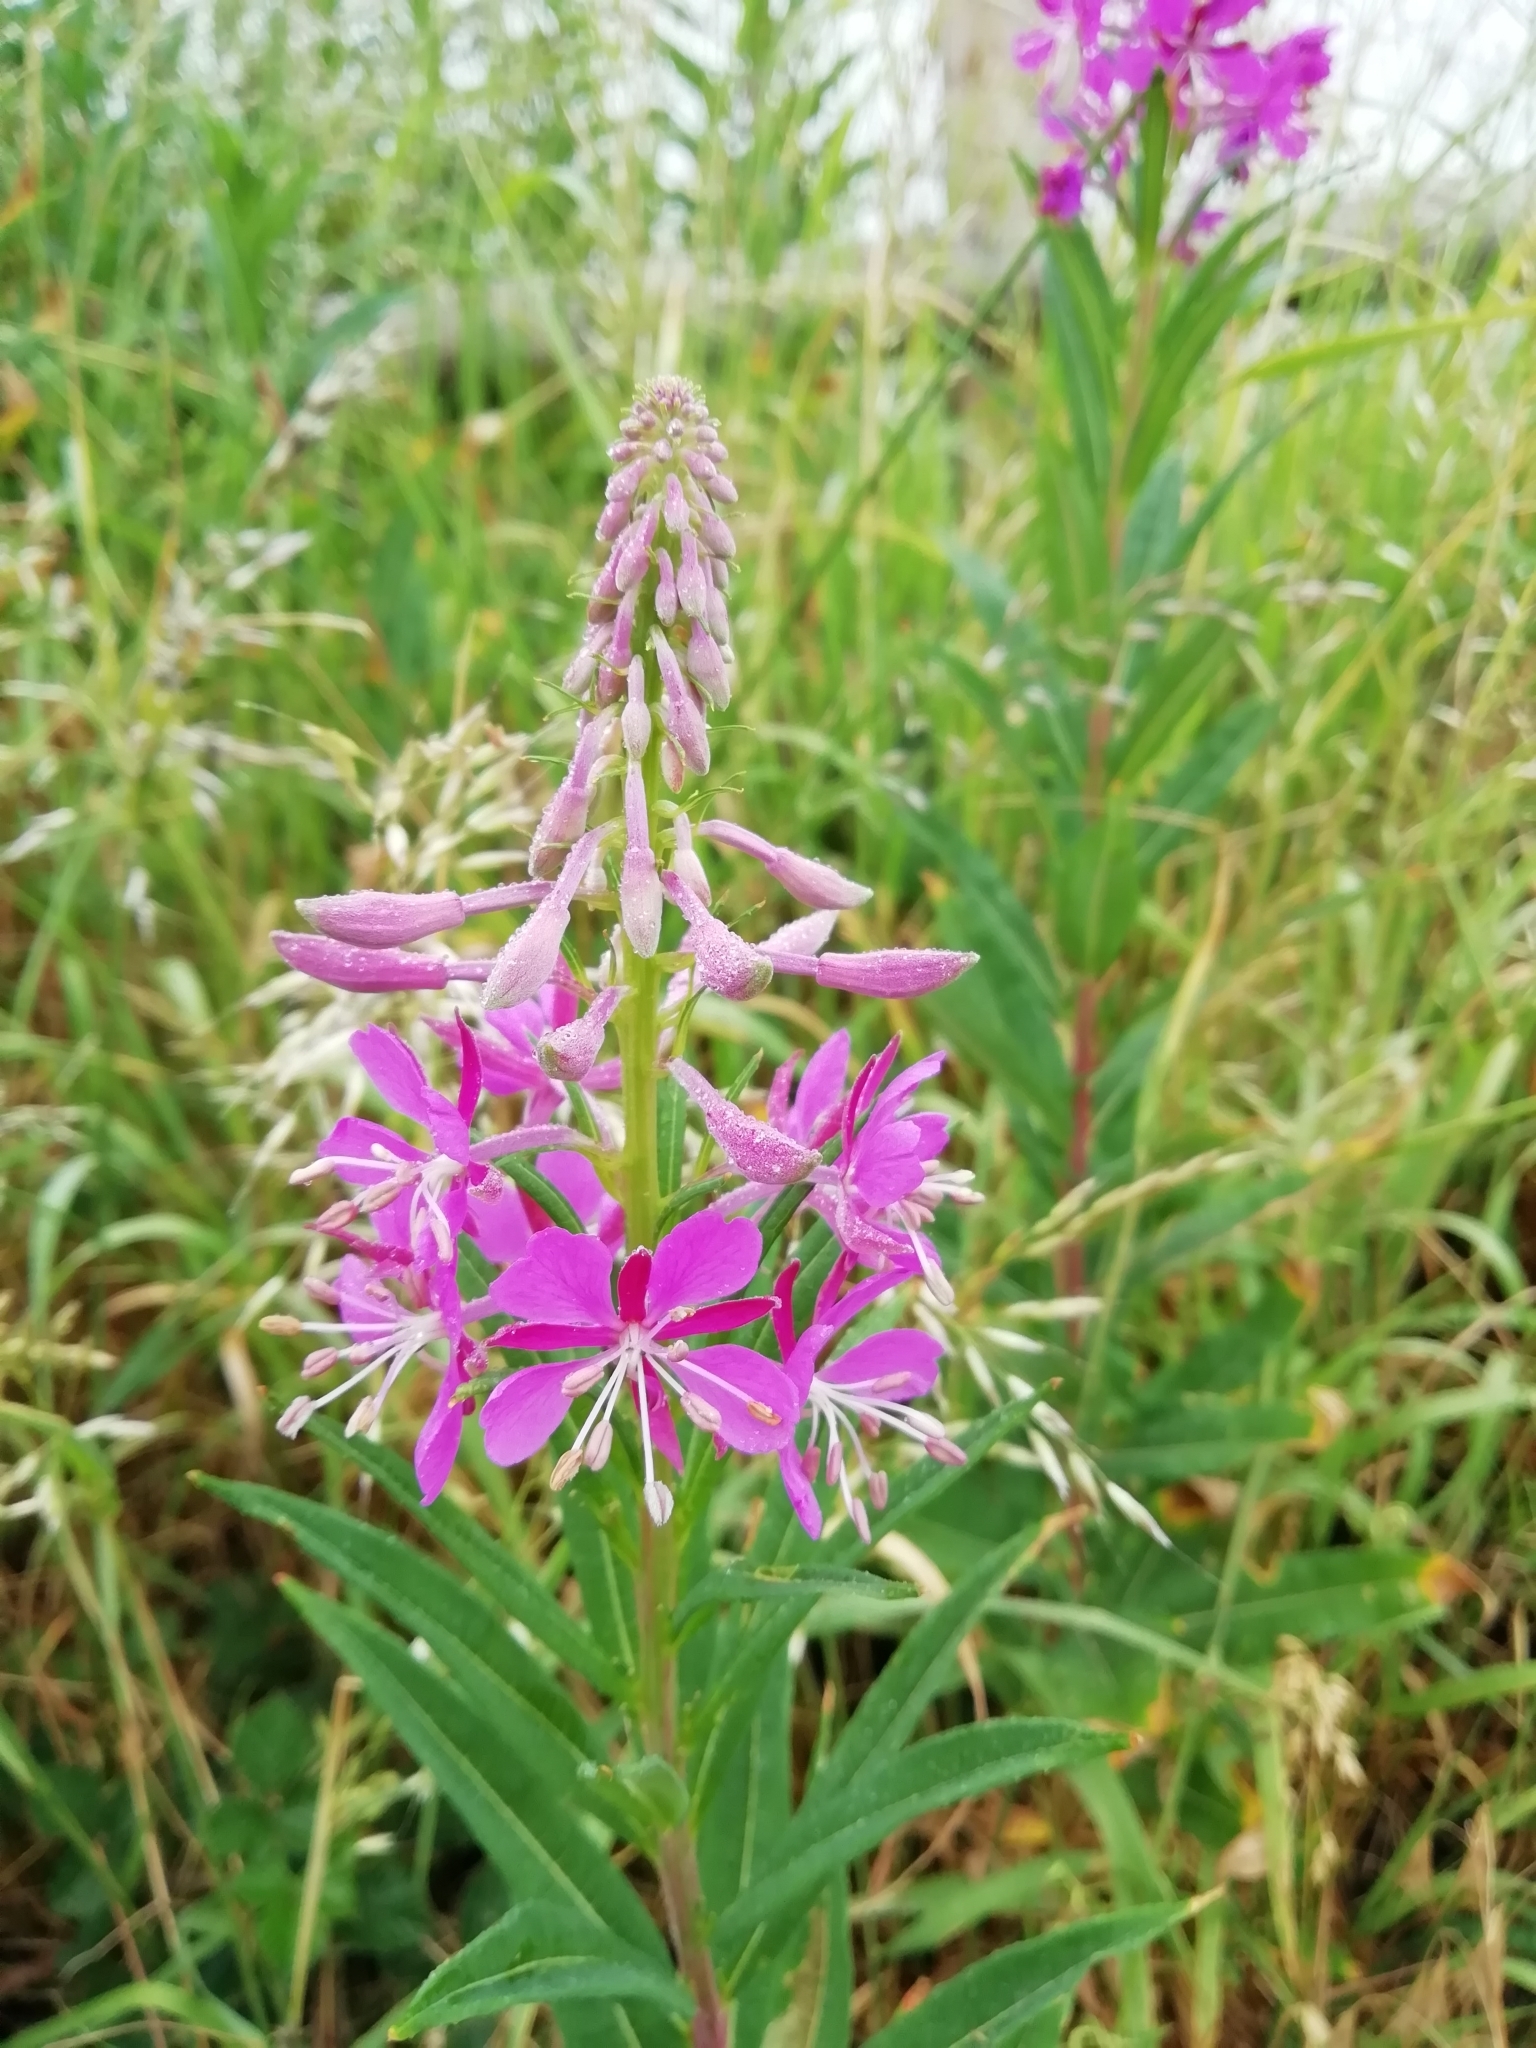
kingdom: Plantae
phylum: Tracheophyta
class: Magnoliopsida
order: Myrtales
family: Onagraceae
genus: Chamaenerion
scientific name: Chamaenerion angustifolium
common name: Fireweed
